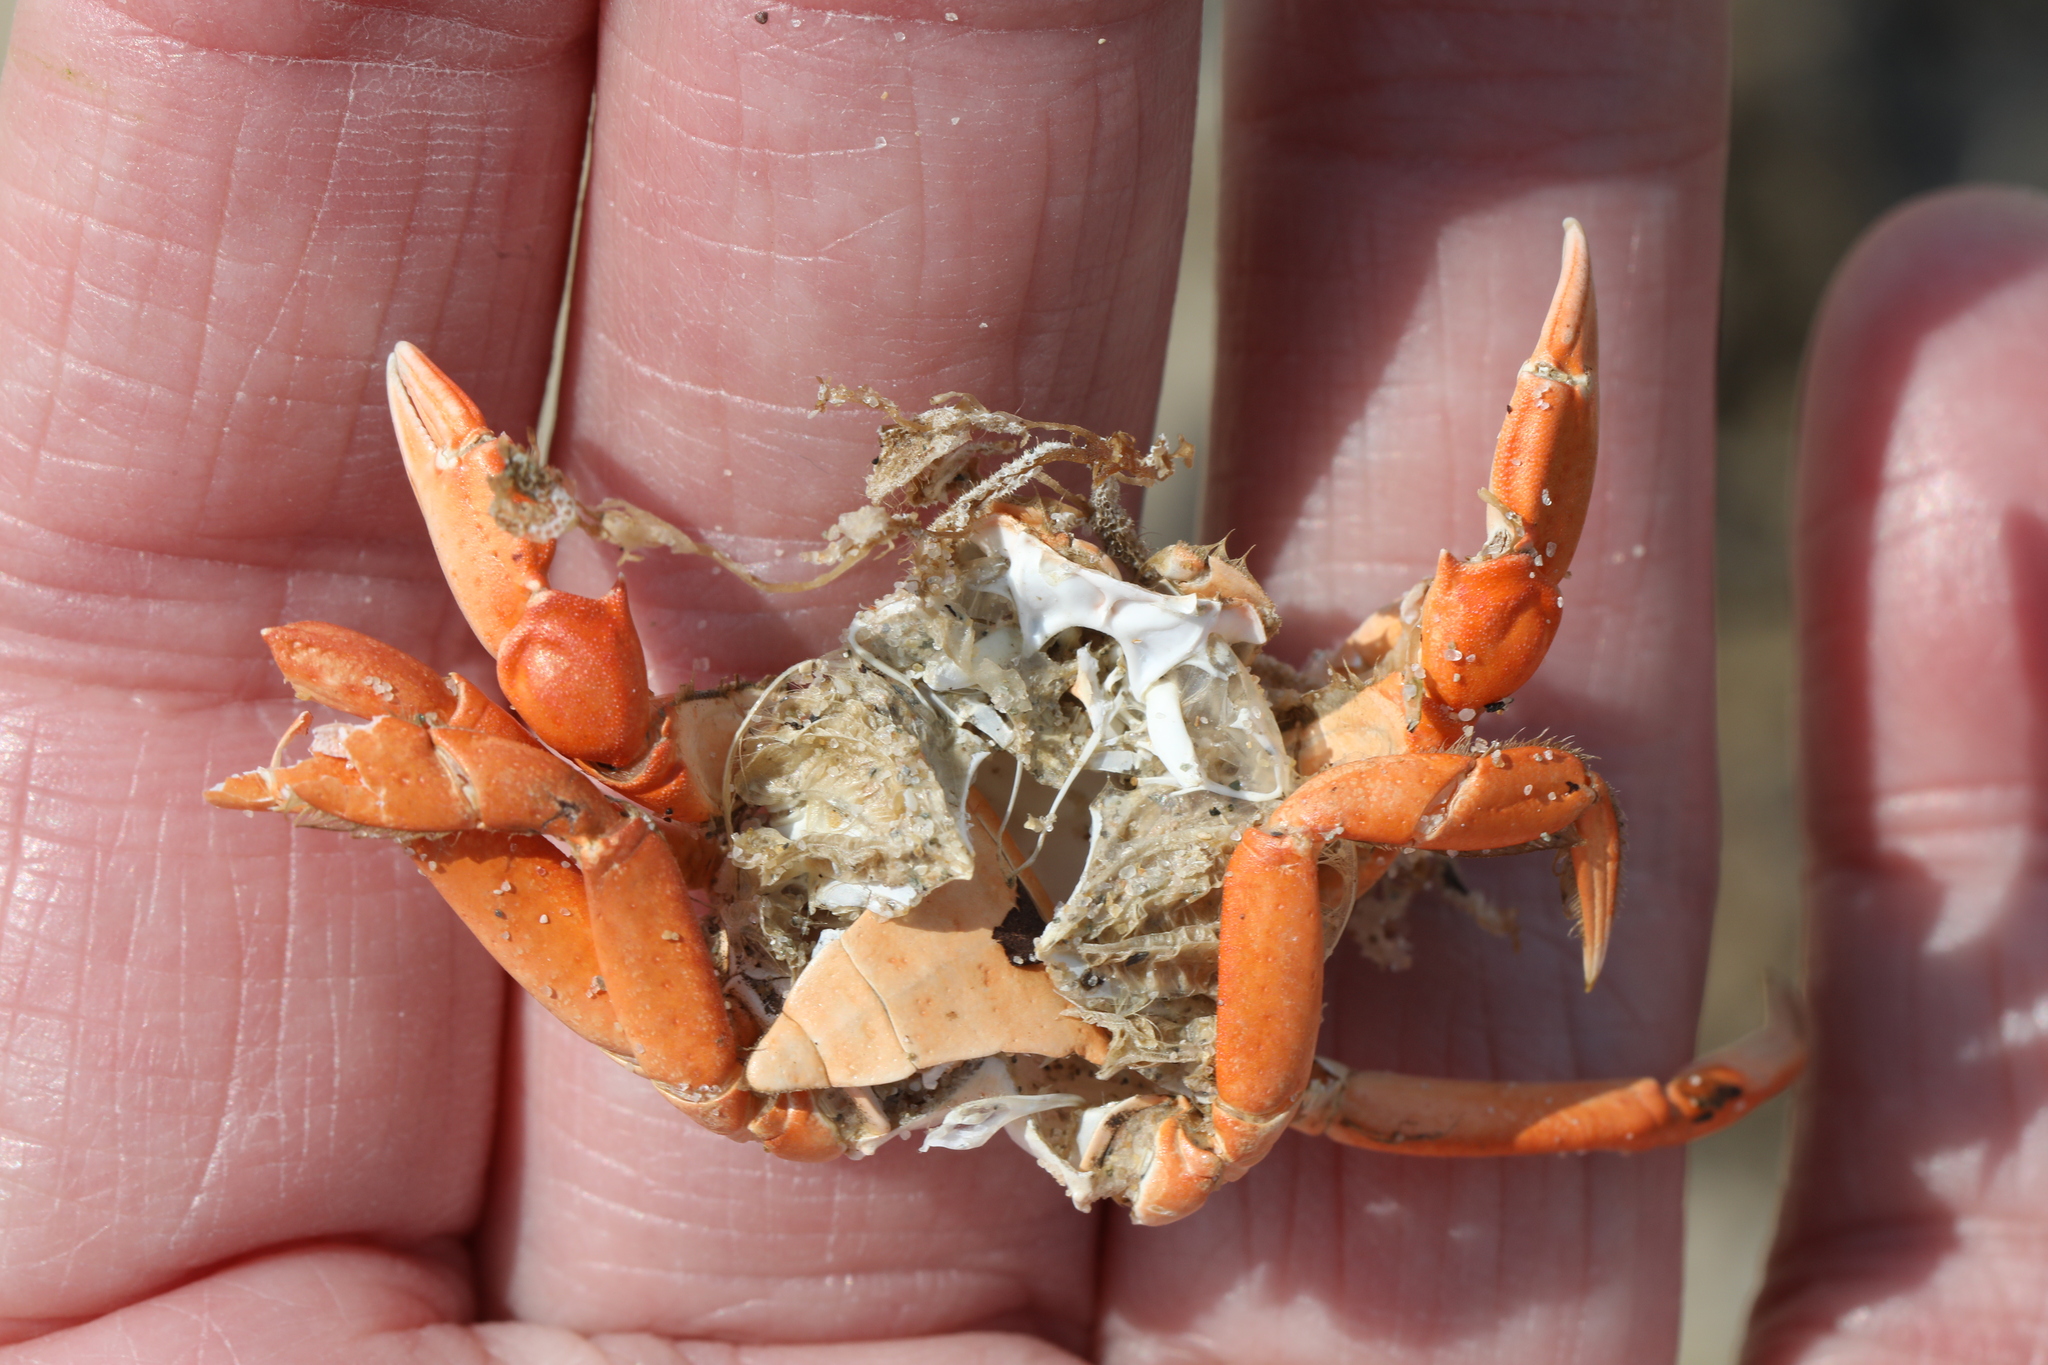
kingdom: Animalia
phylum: Arthropoda
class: Malacostraca
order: Decapoda
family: Carcinidae
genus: Carcinus
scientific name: Carcinus maenas
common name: European green crab
